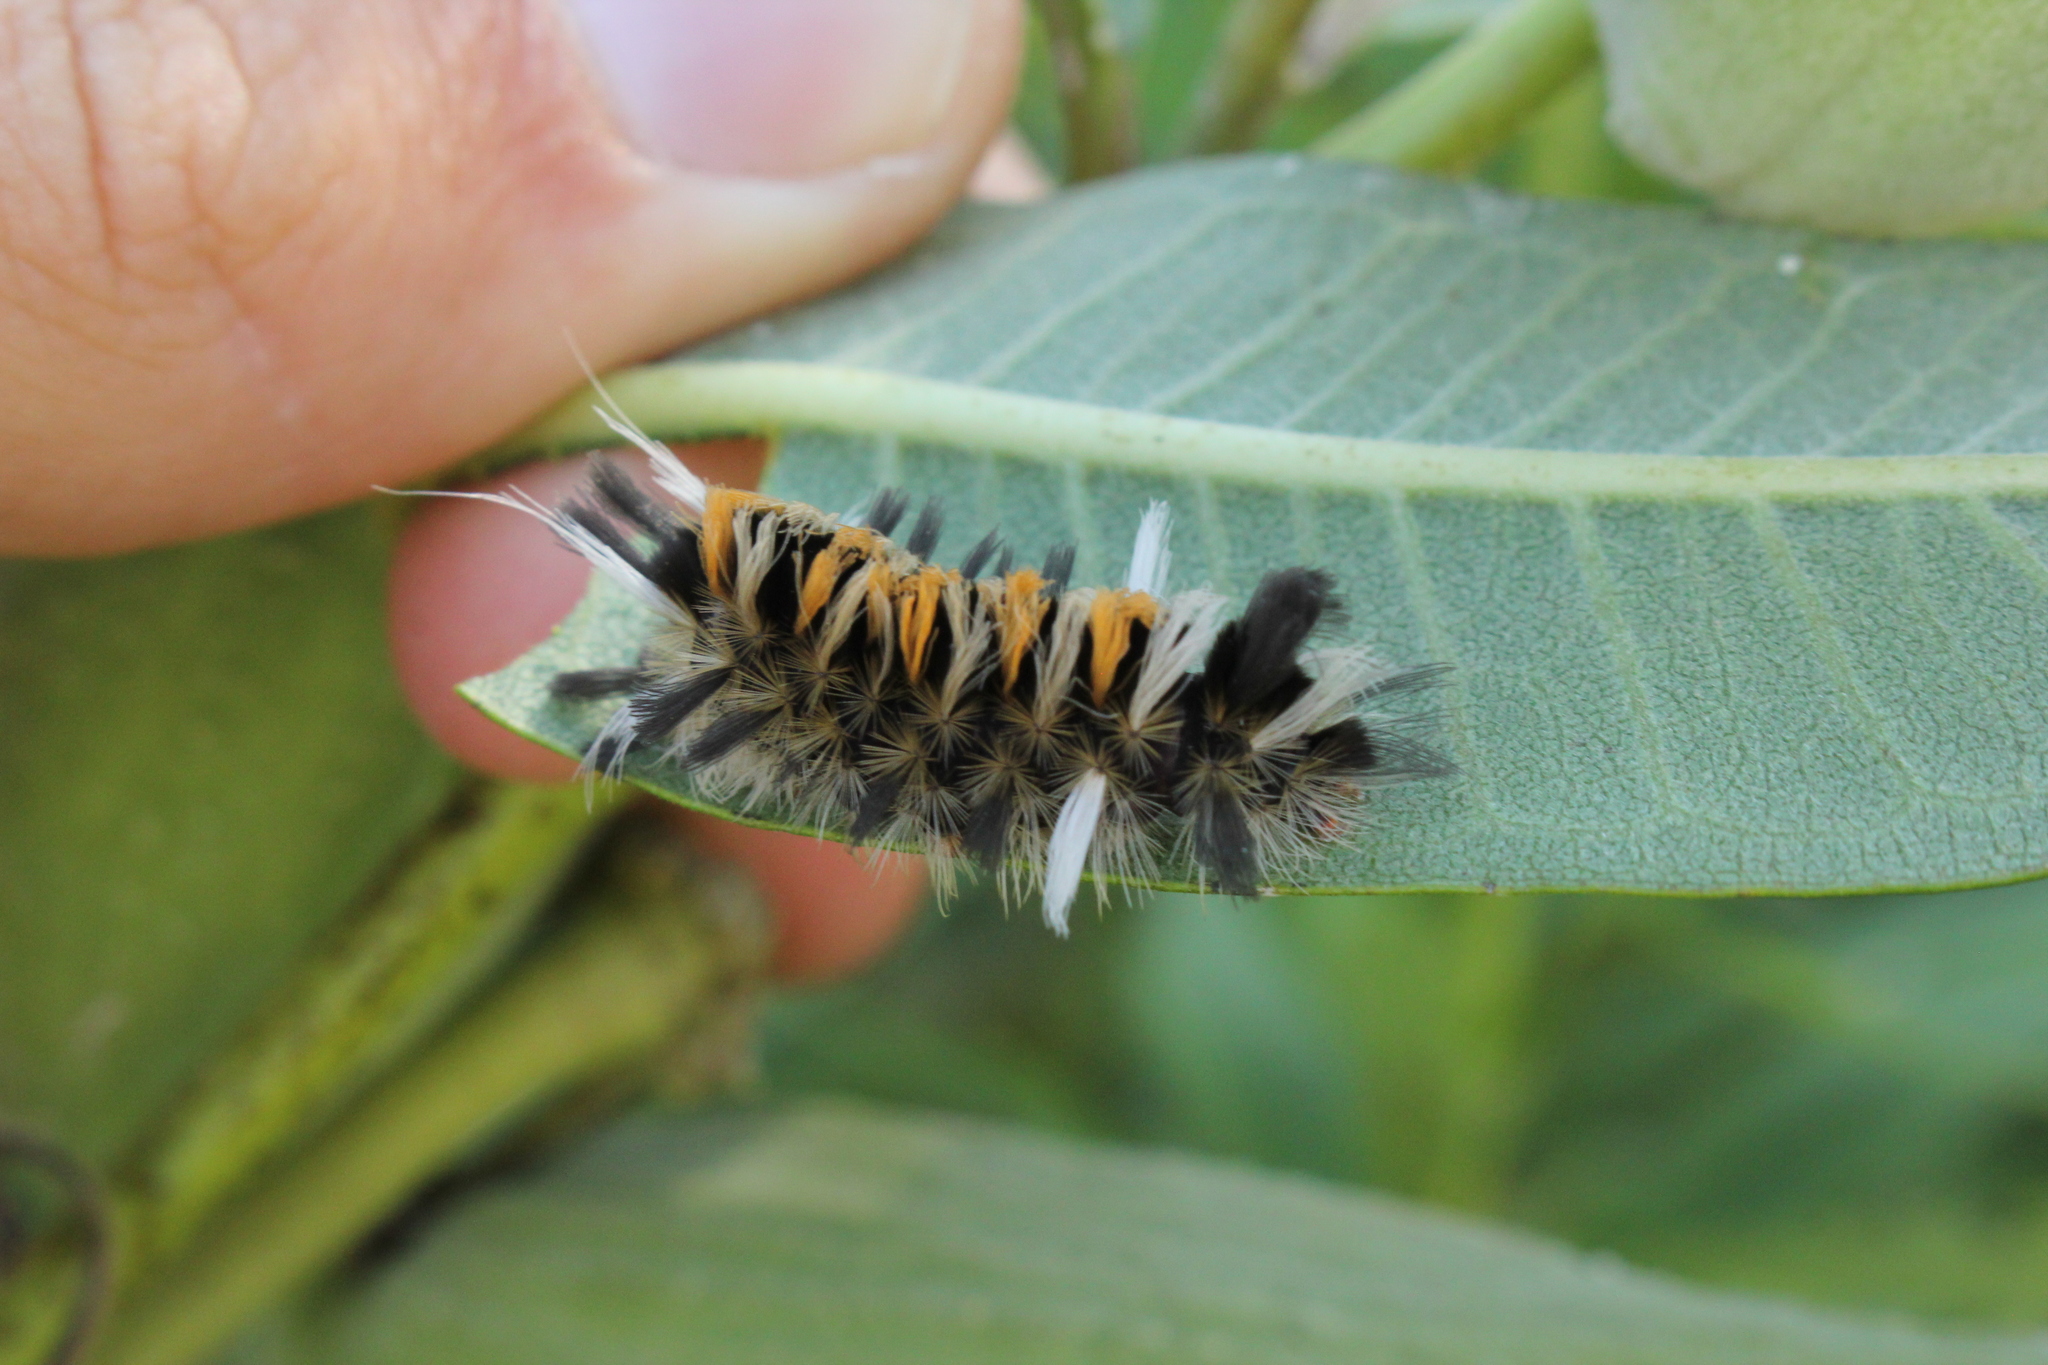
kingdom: Animalia
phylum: Arthropoda
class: Insecta
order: Lepidoptera
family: Erebidae
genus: Euchaetes
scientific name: Euchaetes egle
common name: Milkweed tussock moth
